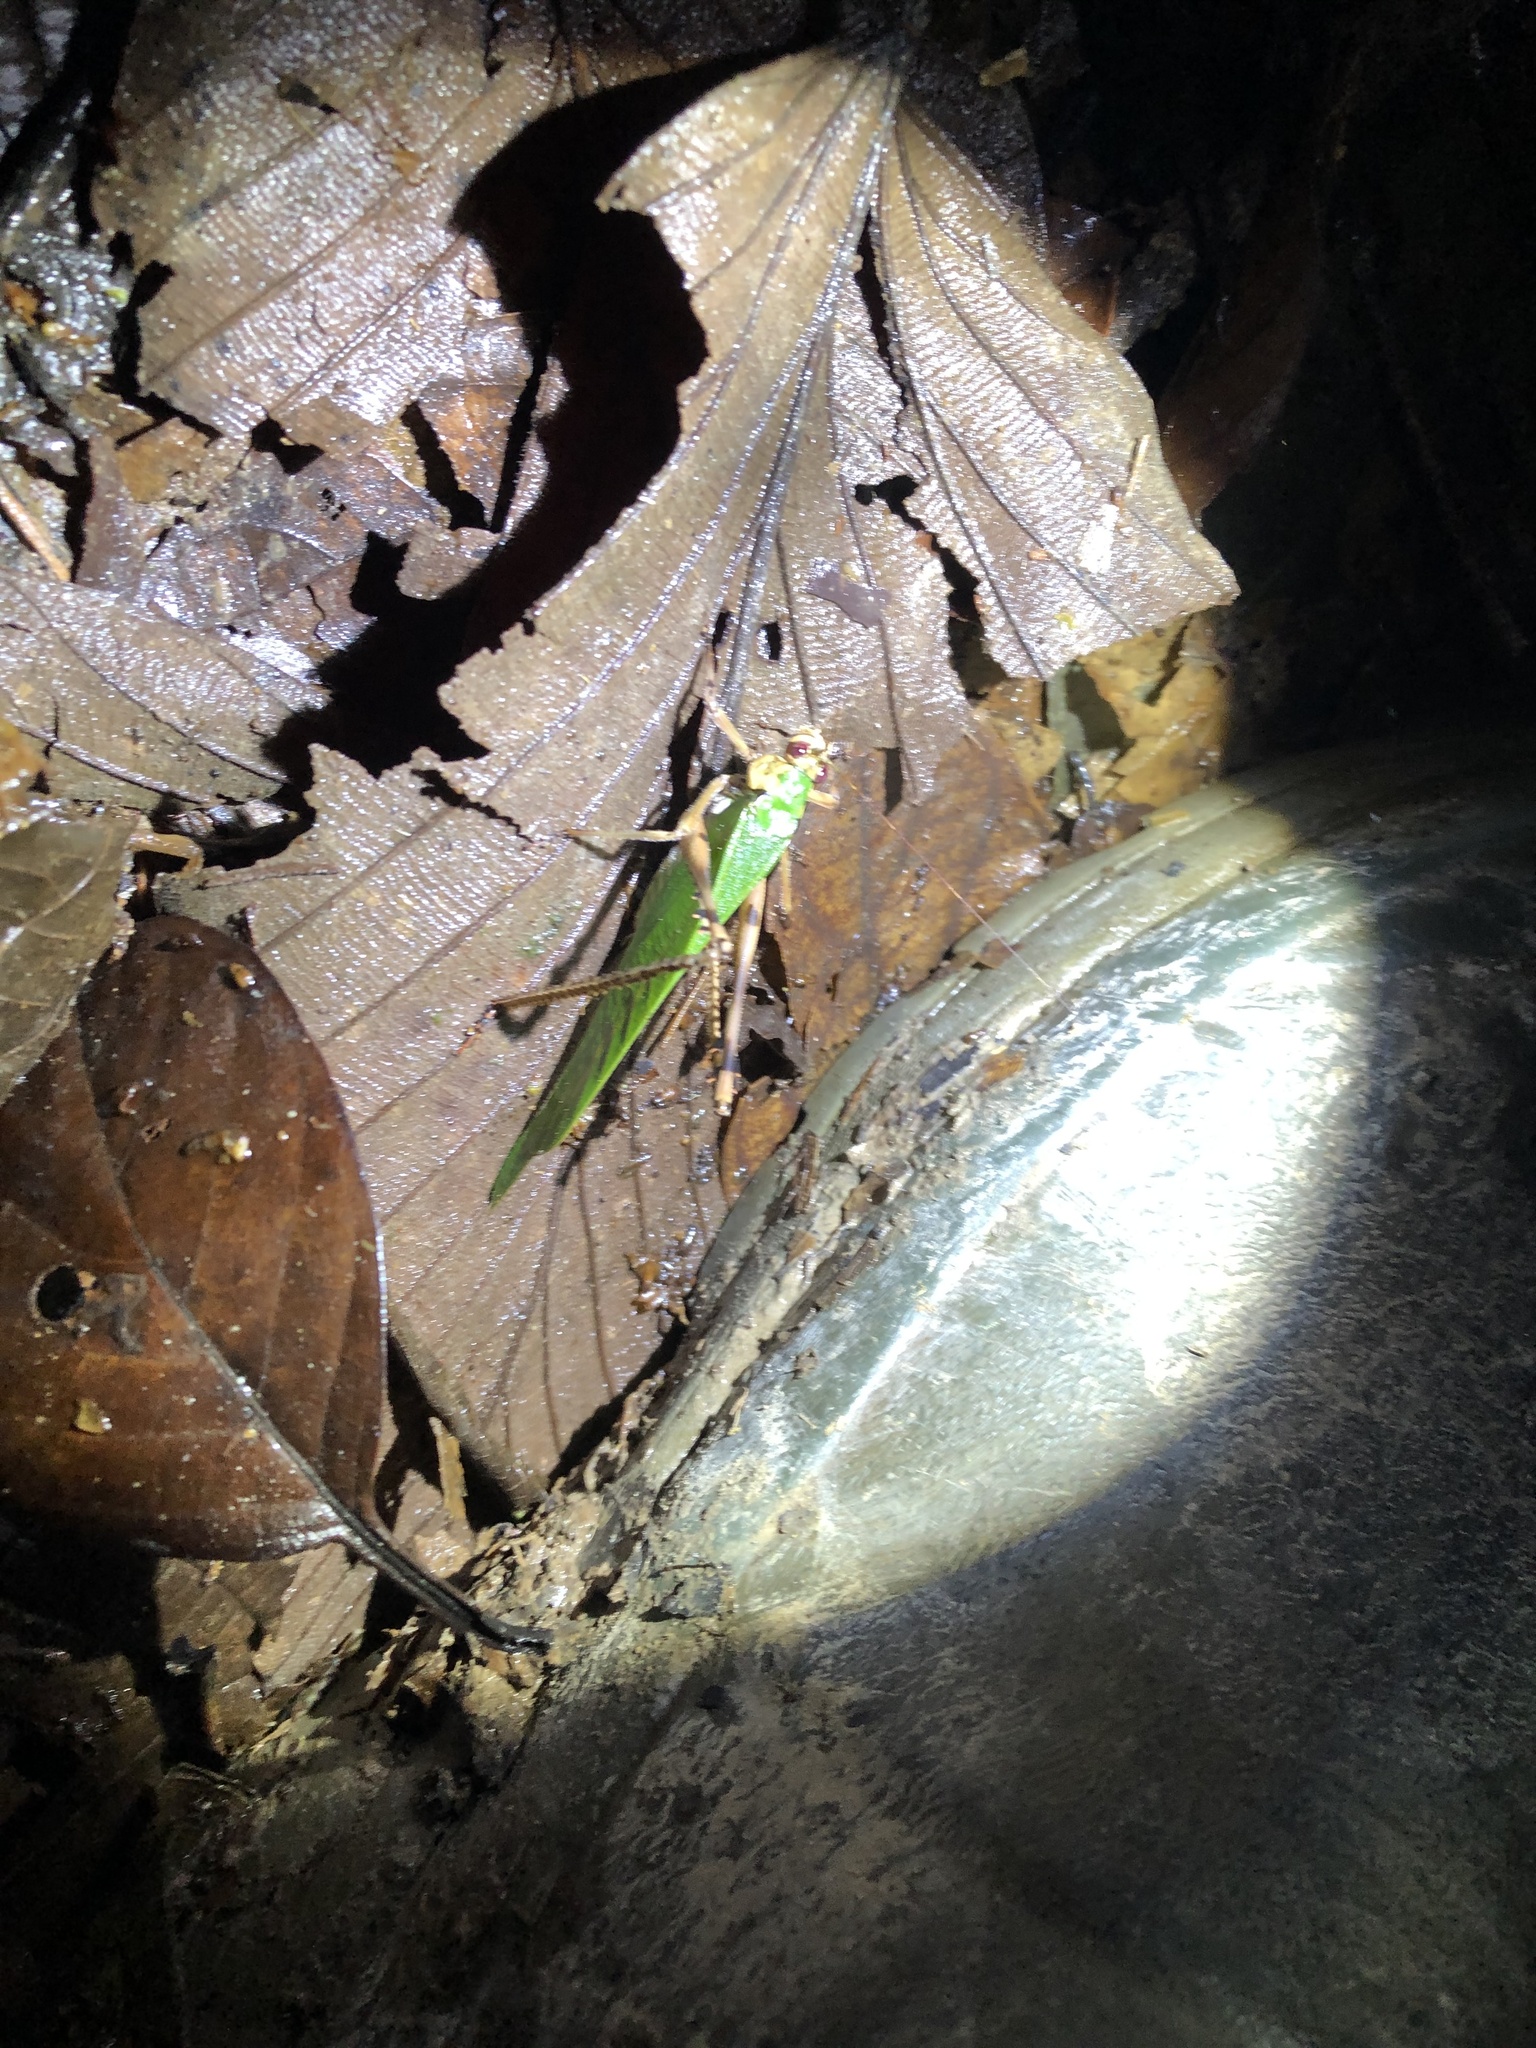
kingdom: Animalia
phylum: Arthropoda
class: Insecta
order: Orthoptera
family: Tettigoniidae
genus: Vellea
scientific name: Vellea cruenta
